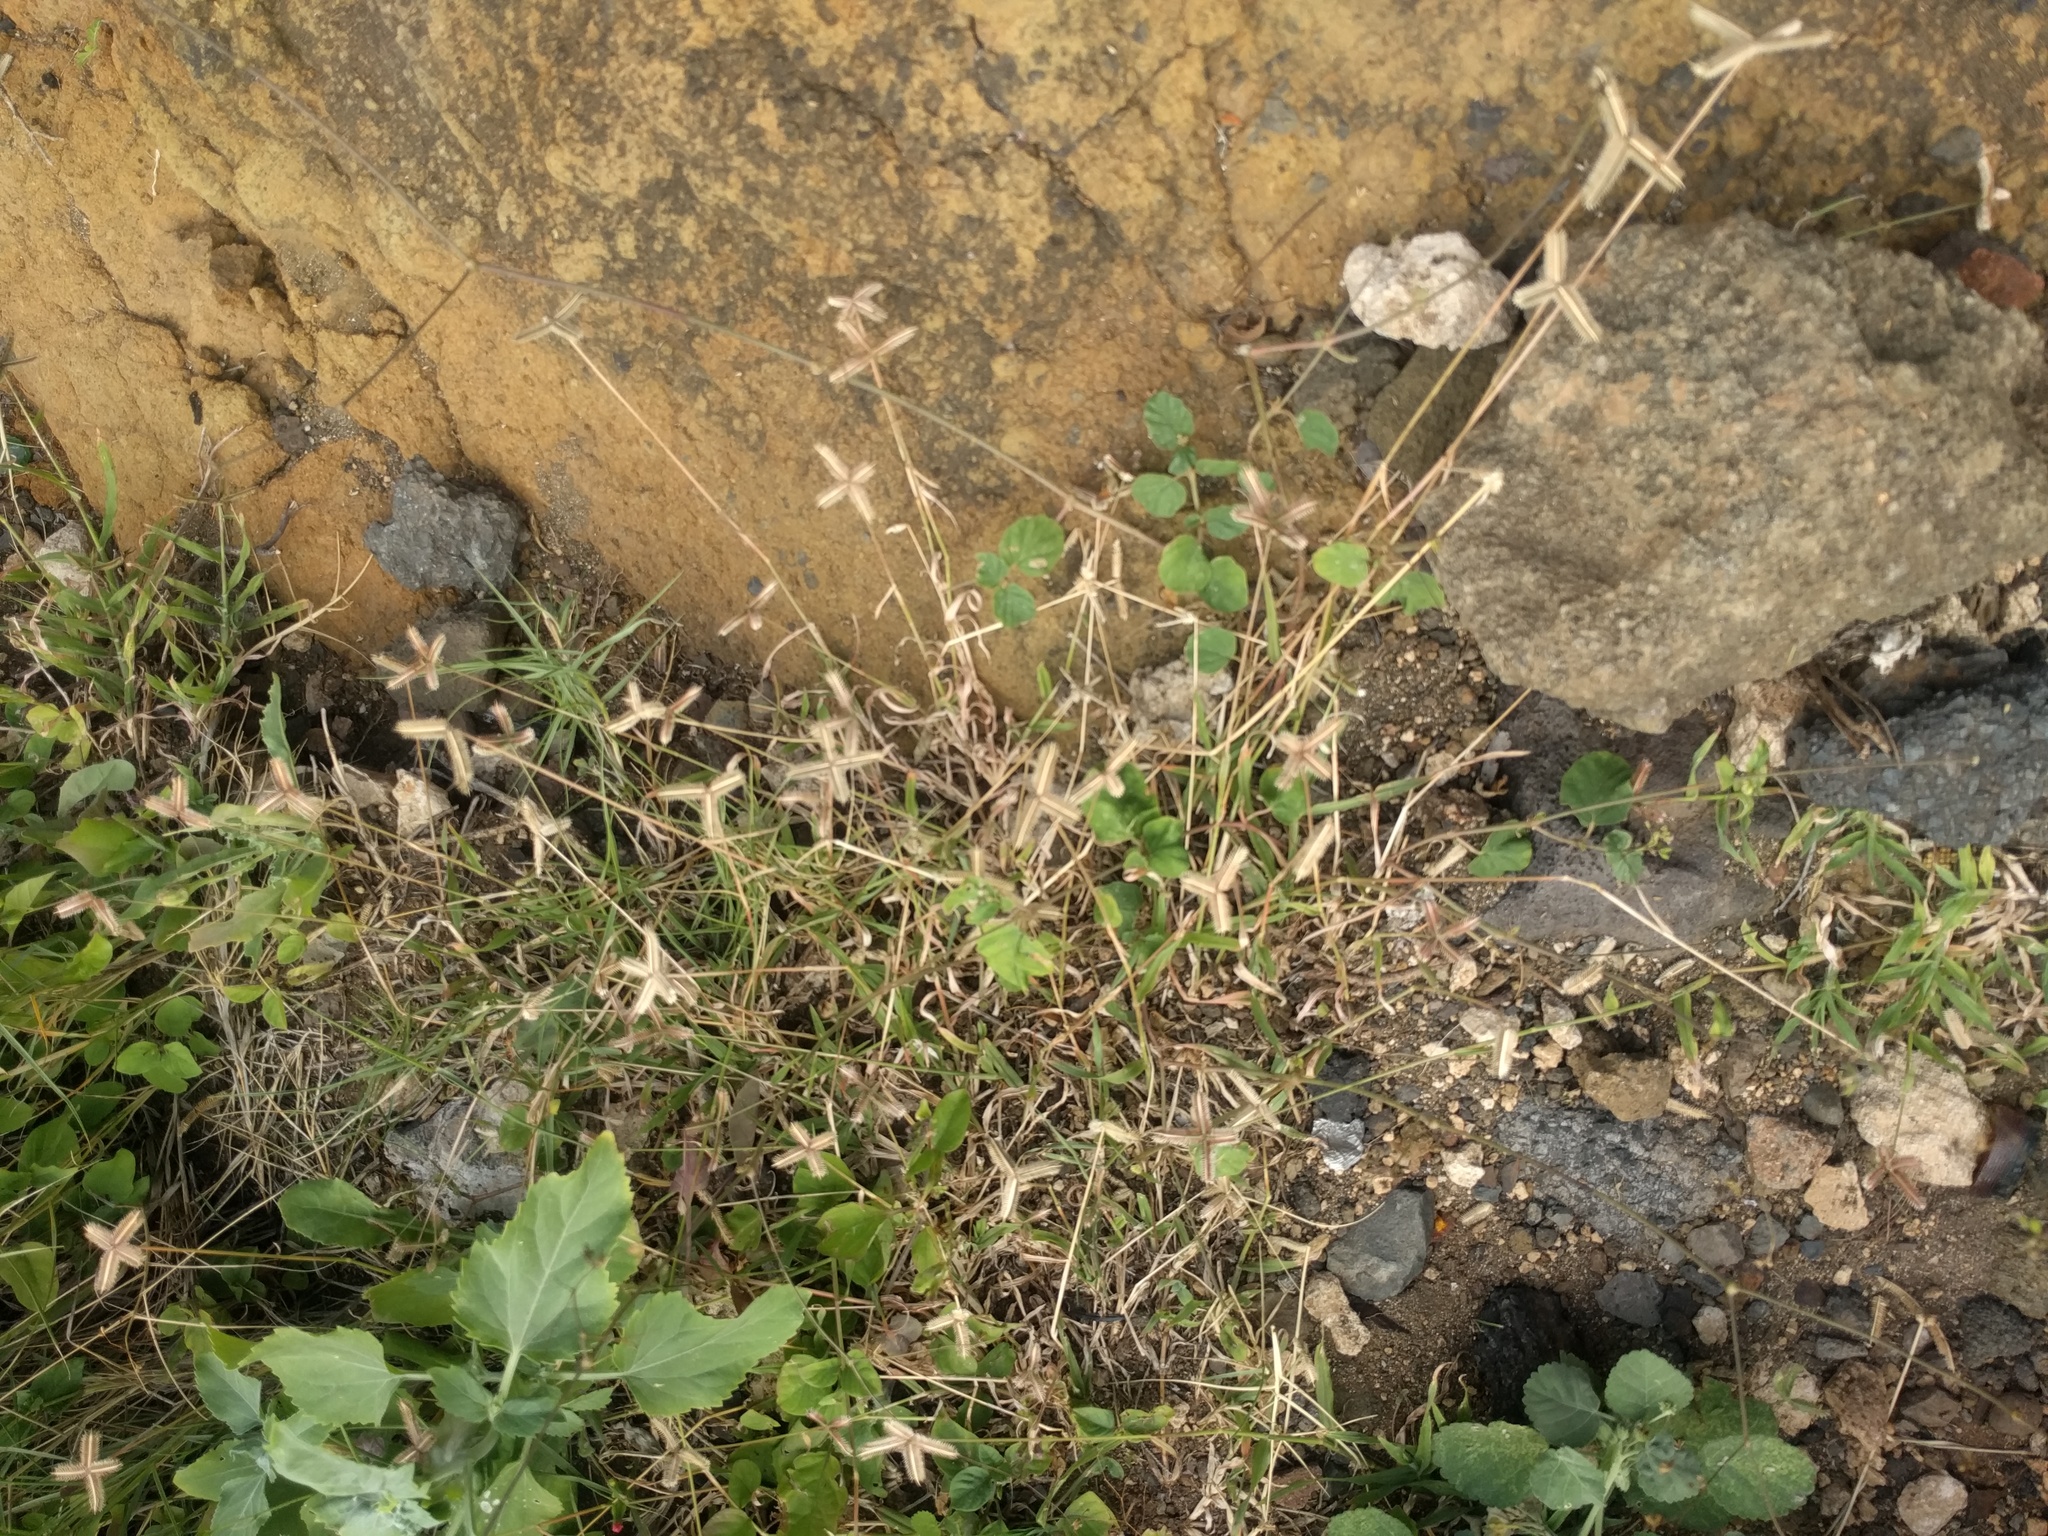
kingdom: Plantae
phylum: Tracheophyta
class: Liliopsida
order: Poales
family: Poaceae
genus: Dactyloctenium
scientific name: Dactyloctenium aegyptium
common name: Egyptian grass
